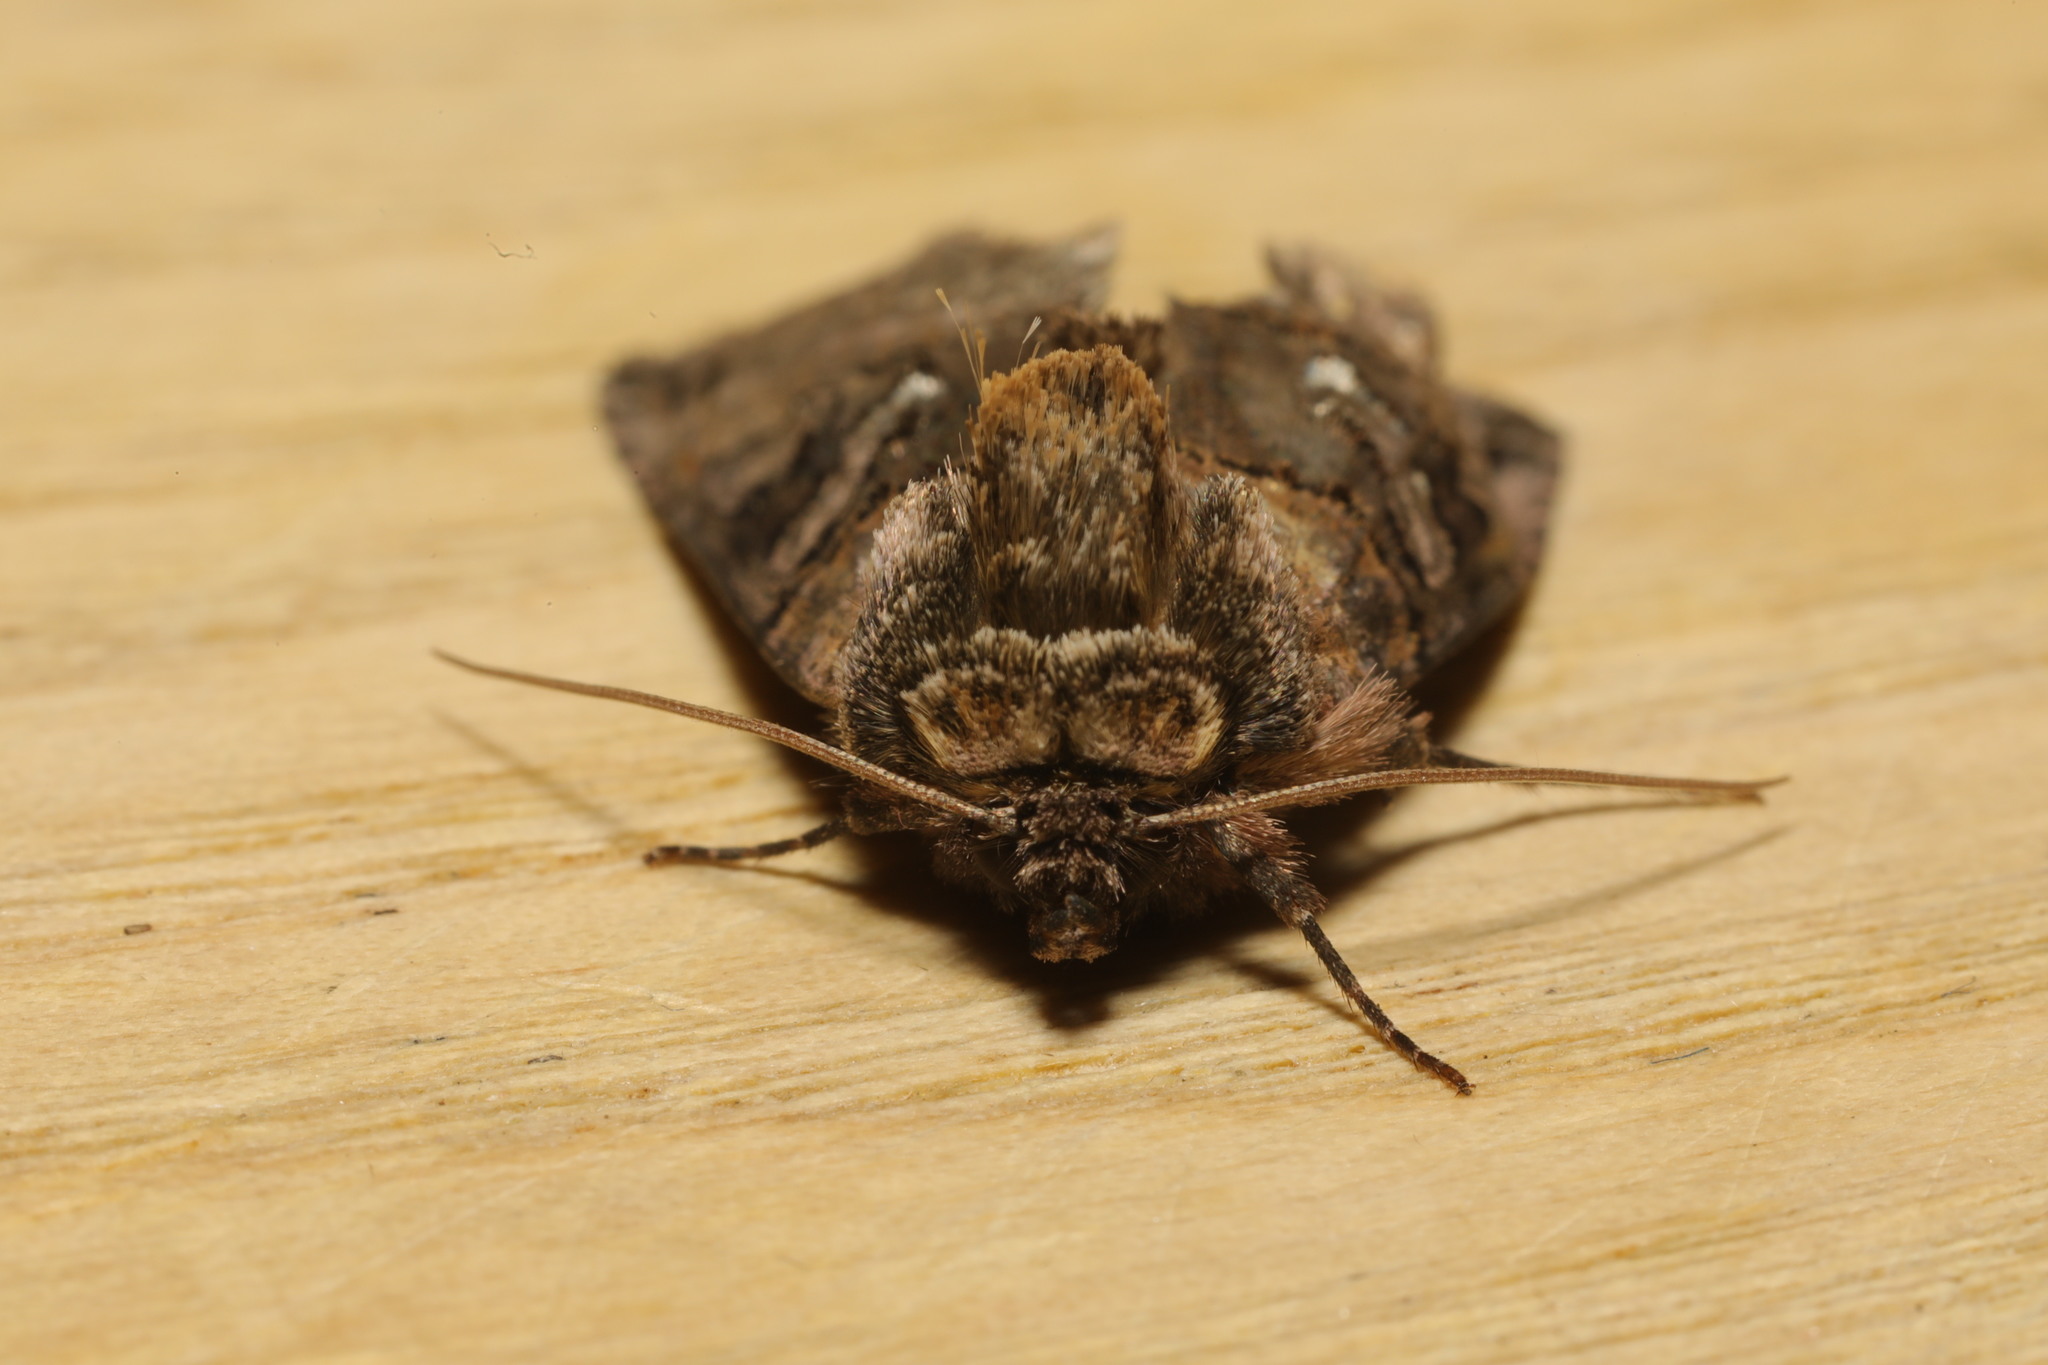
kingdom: Animalia
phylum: Arthropoda
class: Insecta
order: Lepidoptera
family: Noctuidae
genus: Abrostola
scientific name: Abrostola tripartita
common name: Spectacle
